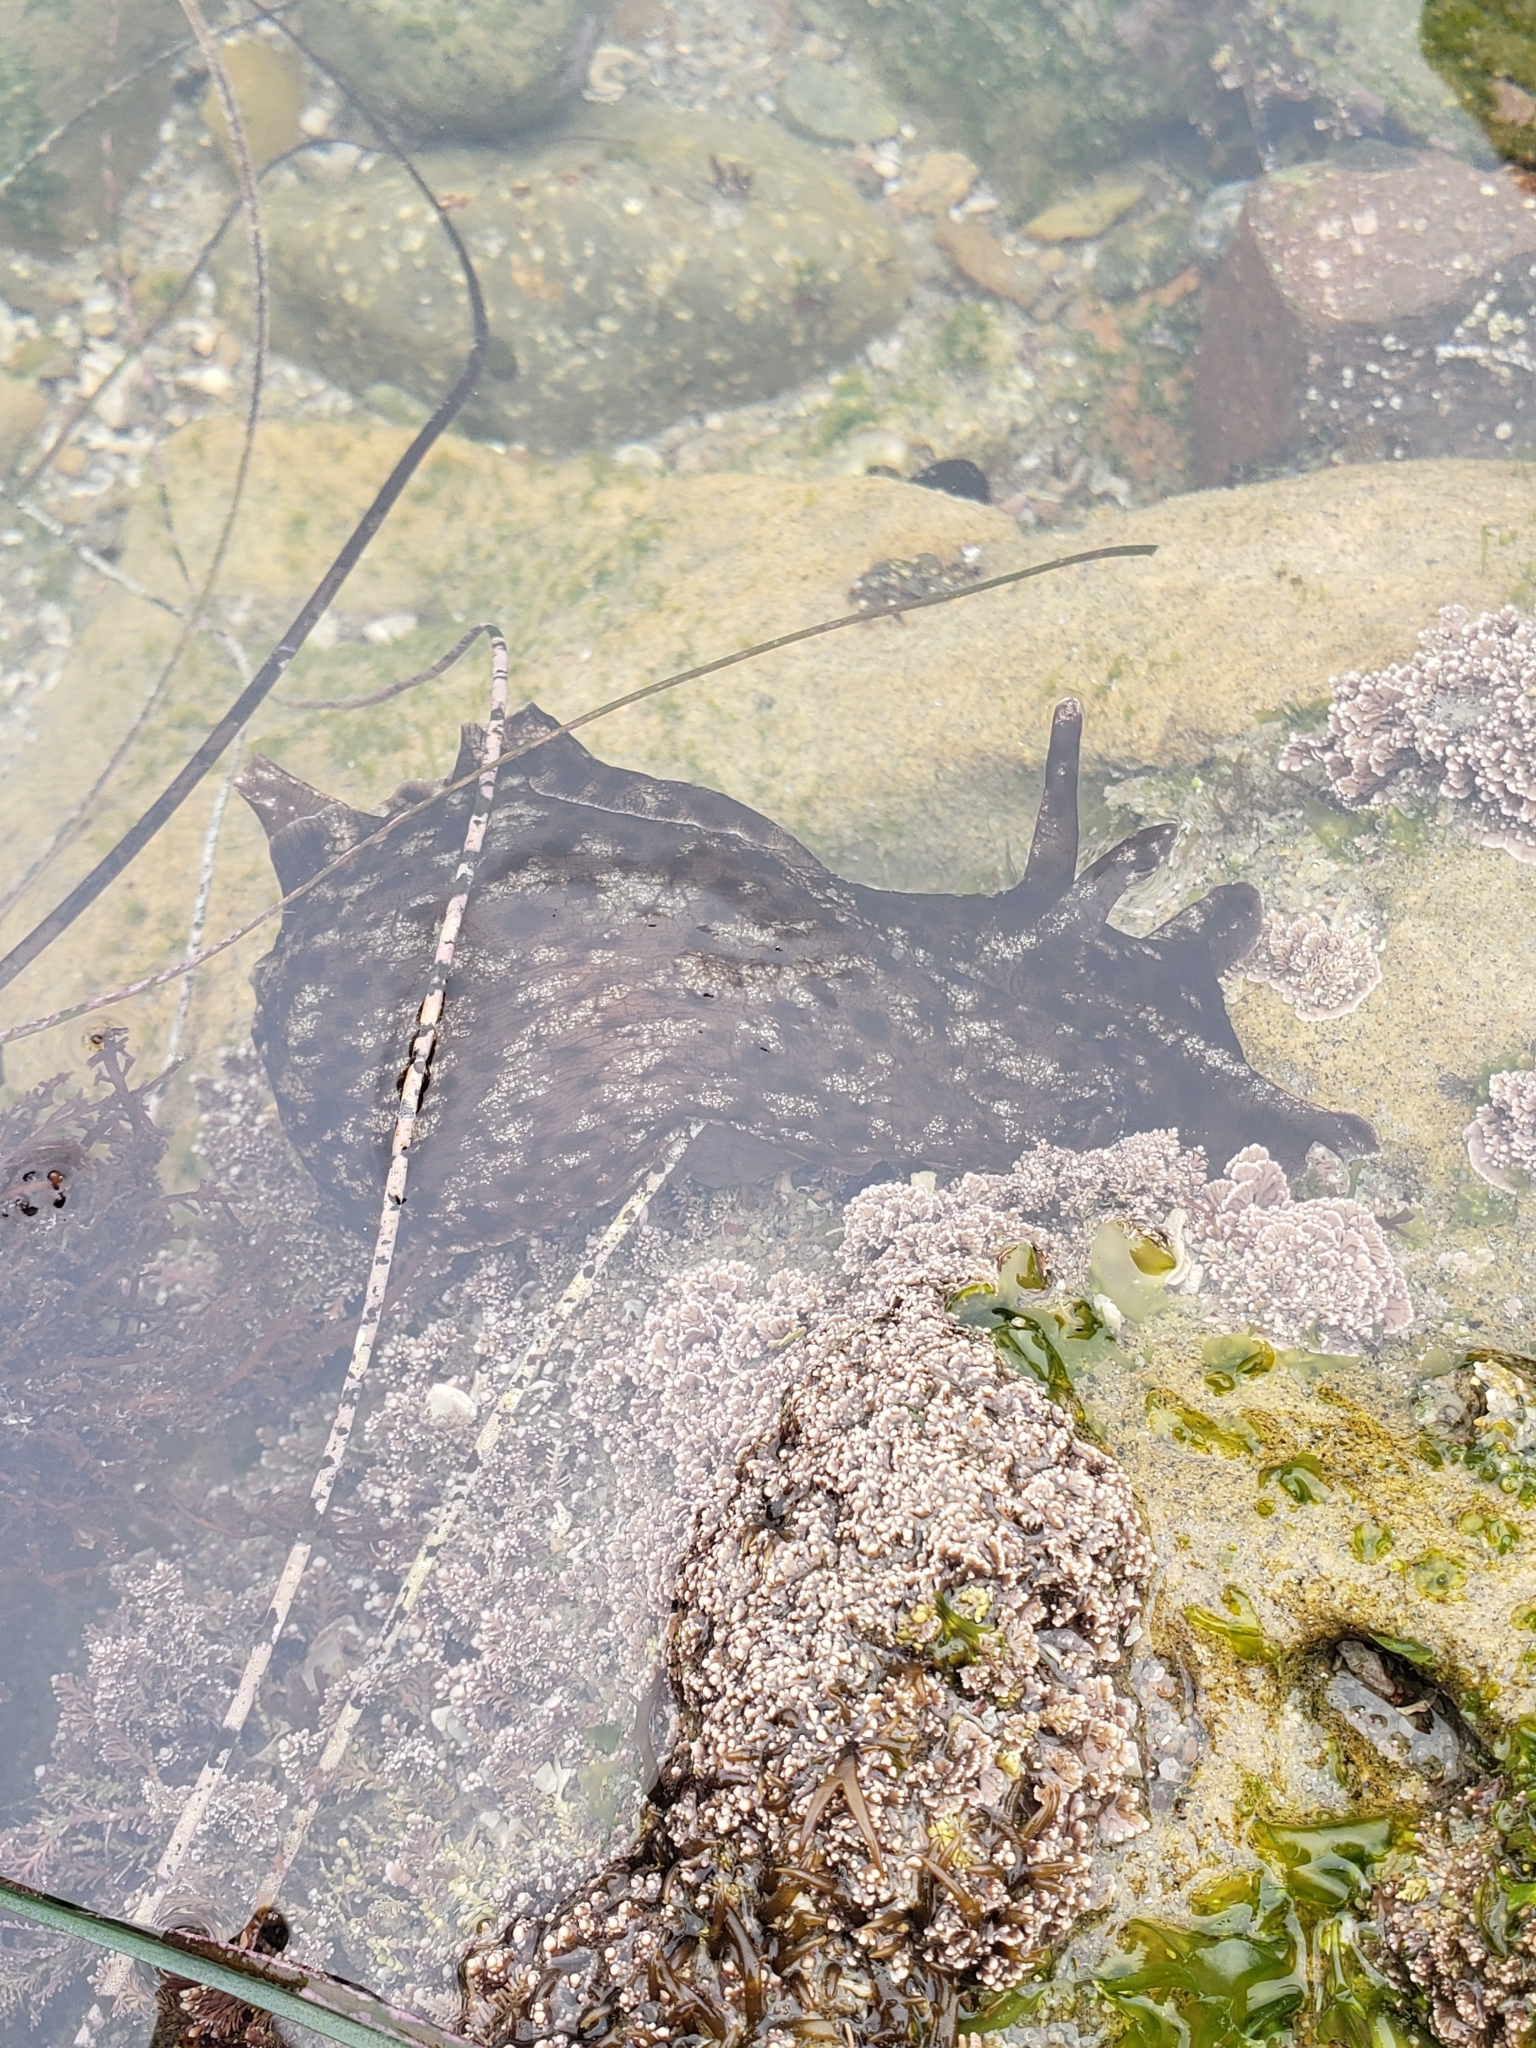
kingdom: Animalia
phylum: Mollusca
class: Gastropoda
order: Aplysiida
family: Aplysiidae
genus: Aplysia
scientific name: Aplysia californica
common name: California seahare
